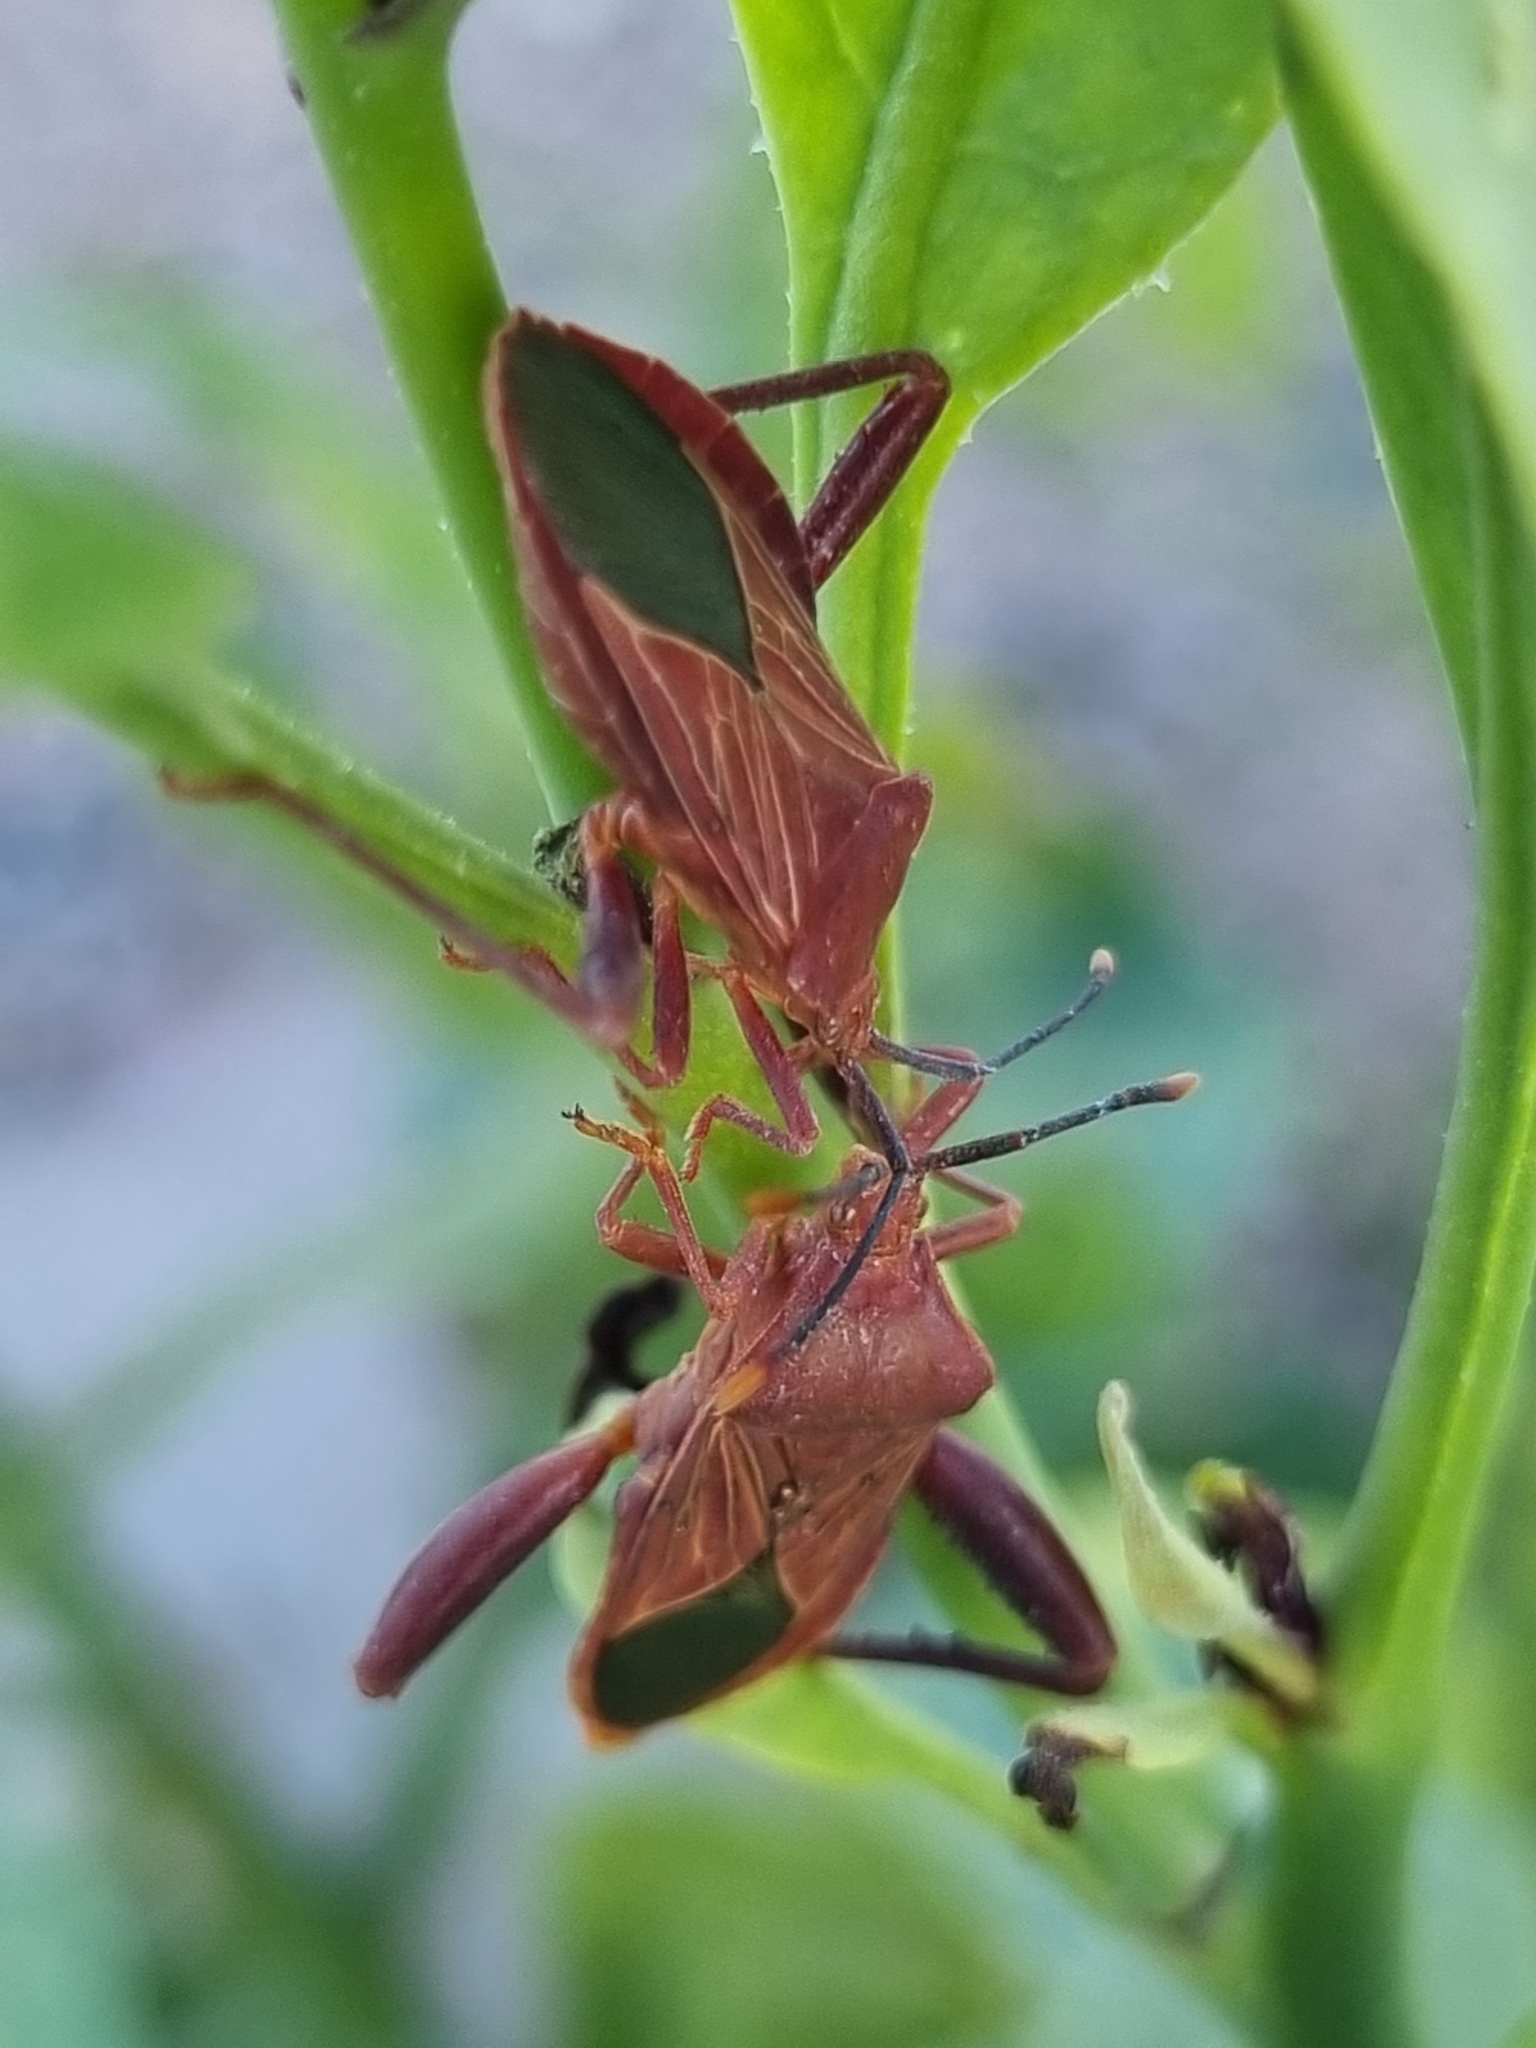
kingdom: Animalia
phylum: Arthropoda
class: Insecta
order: Hemiptera
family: Coreidae
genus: Athaumastus
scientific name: Athaumastus haematicus
